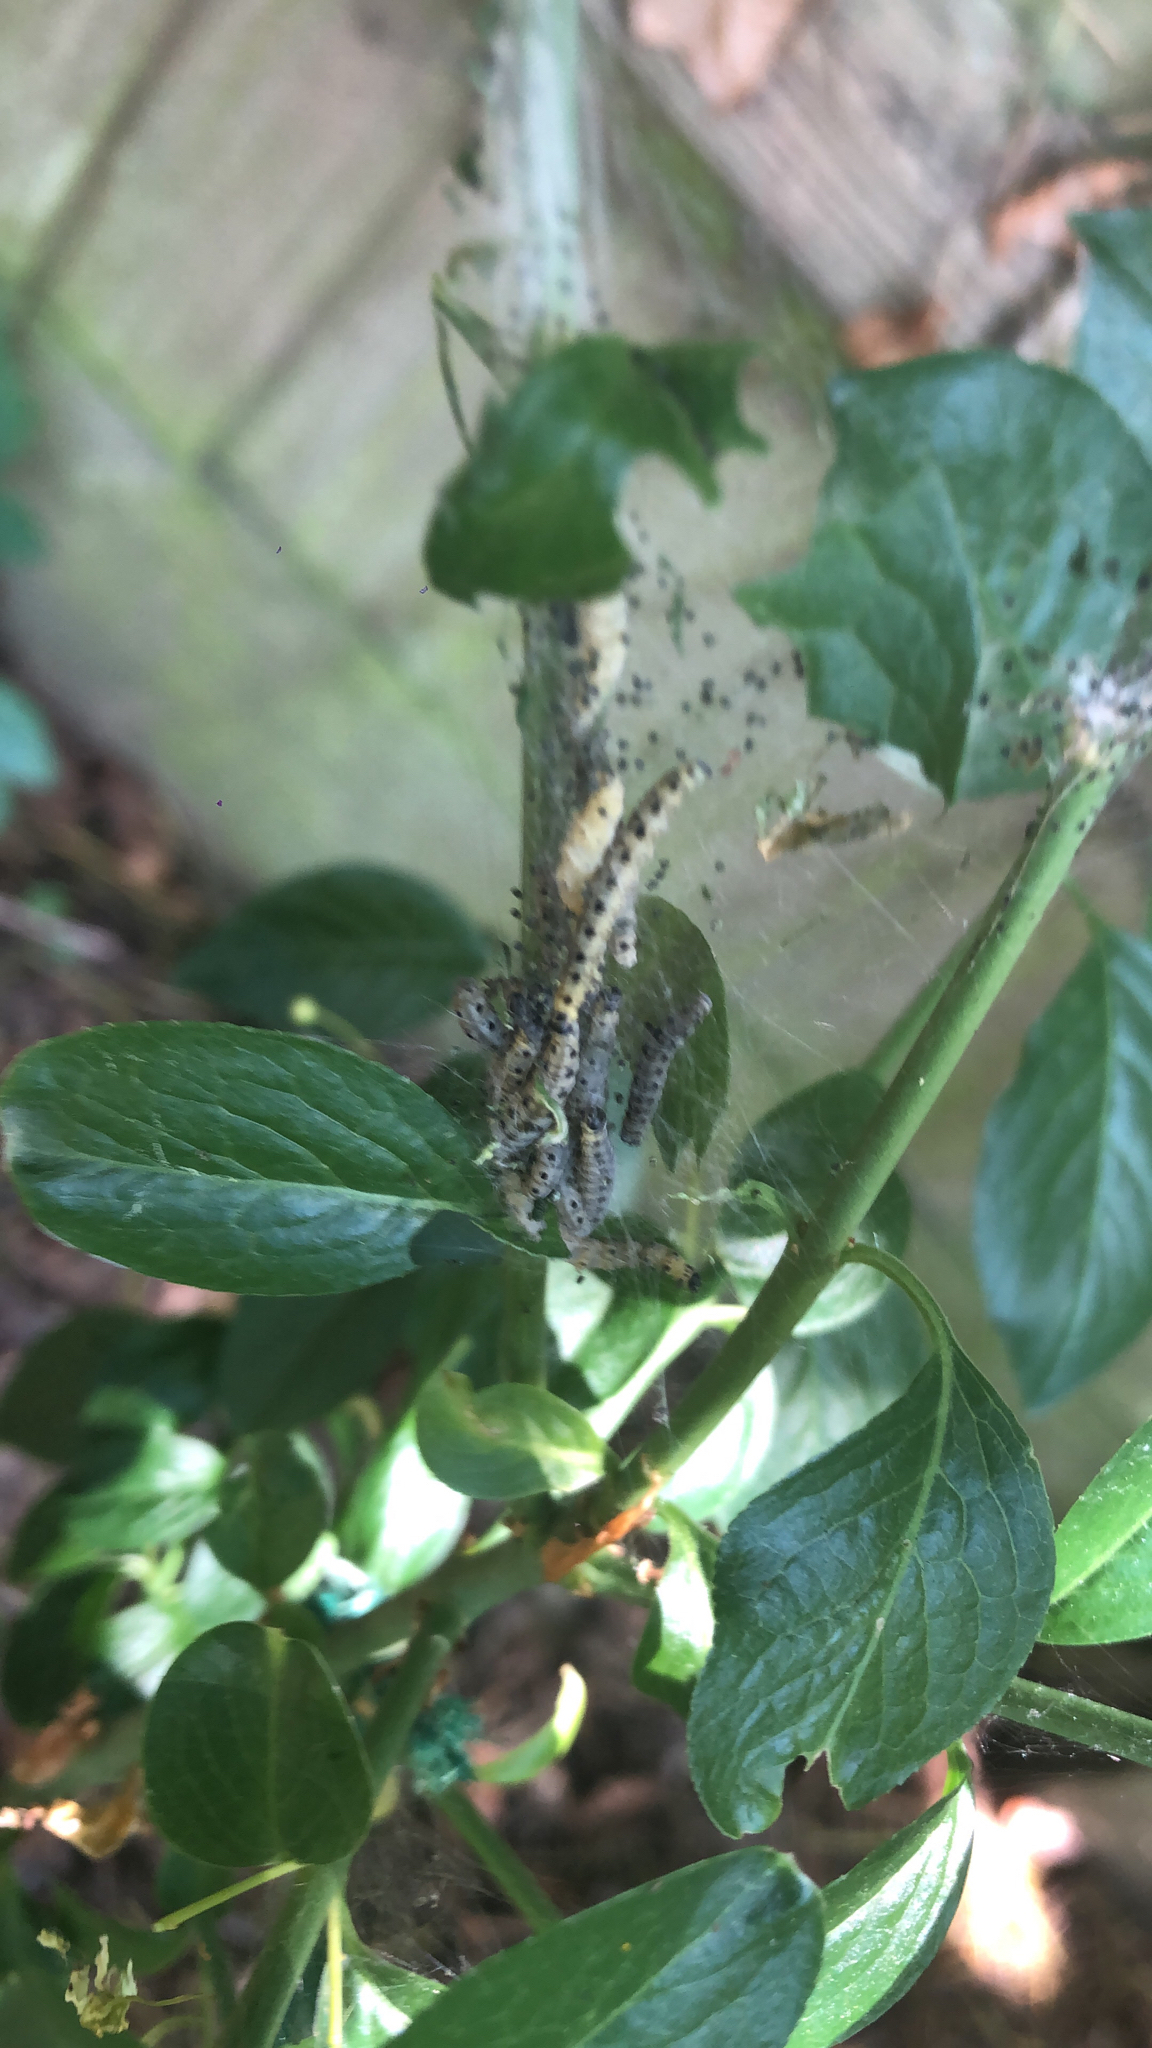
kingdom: Animalia
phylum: Arthropoda
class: Insecta
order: Lepidoptera
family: Yponomeutidae
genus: Yponomeuta
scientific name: Yponomeuta cagnagellus
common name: Spindle ermine
